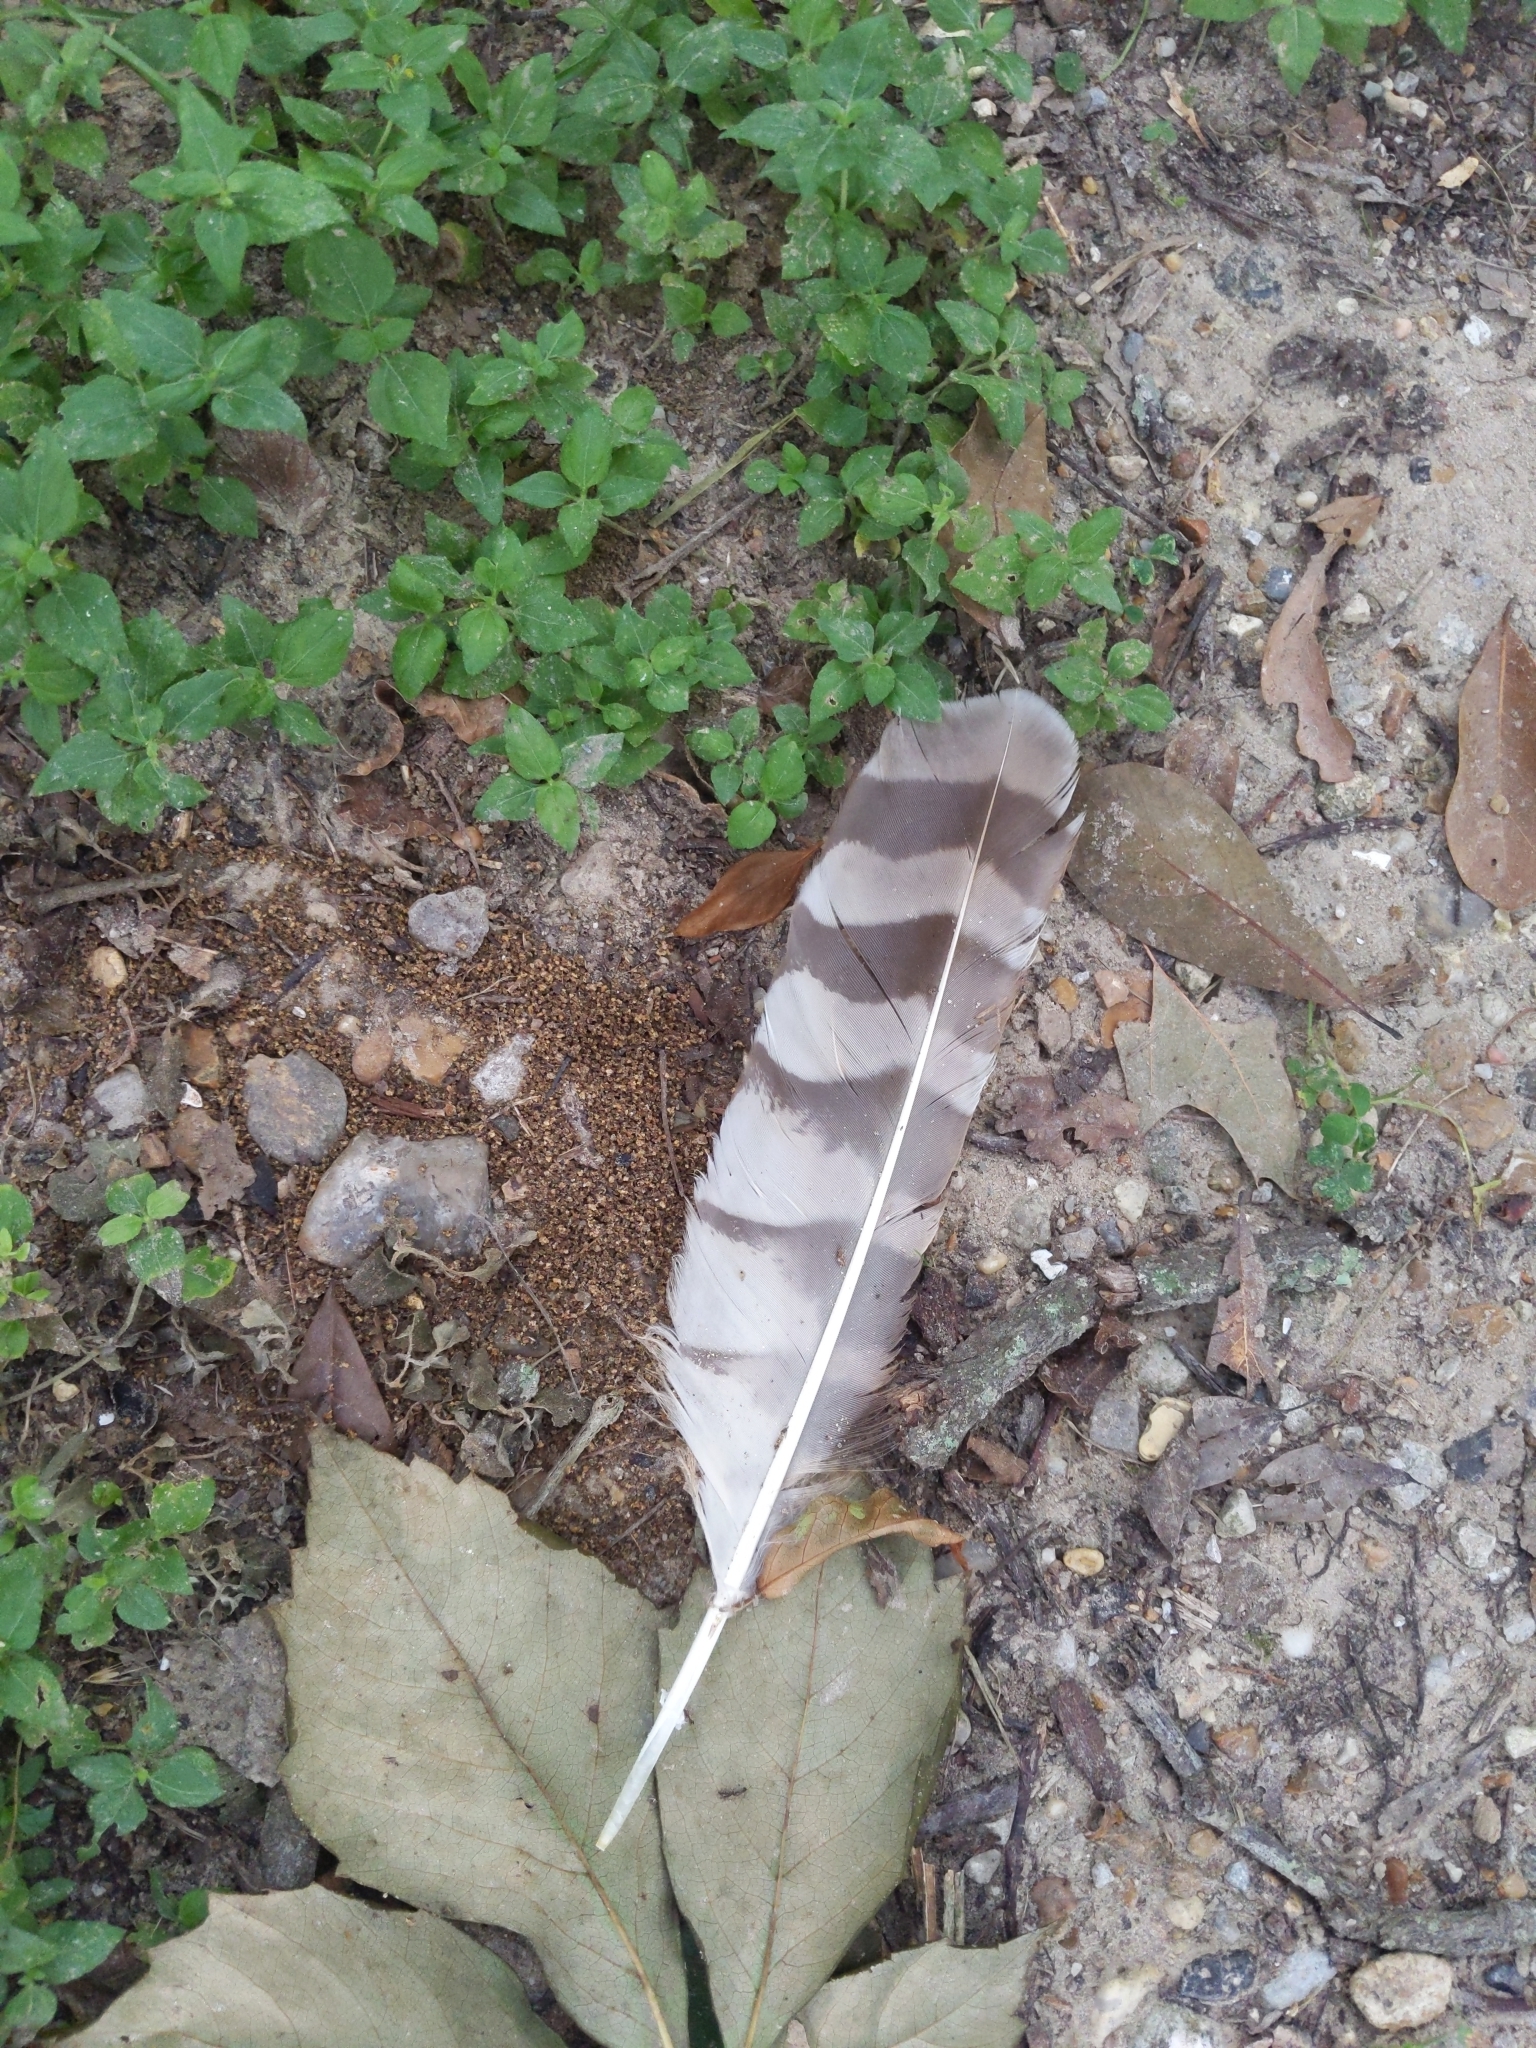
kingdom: Animalia
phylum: Chordata
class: Aves
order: Strigiformes
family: Strigidae
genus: Strix
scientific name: Strix varia
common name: Barred owl
